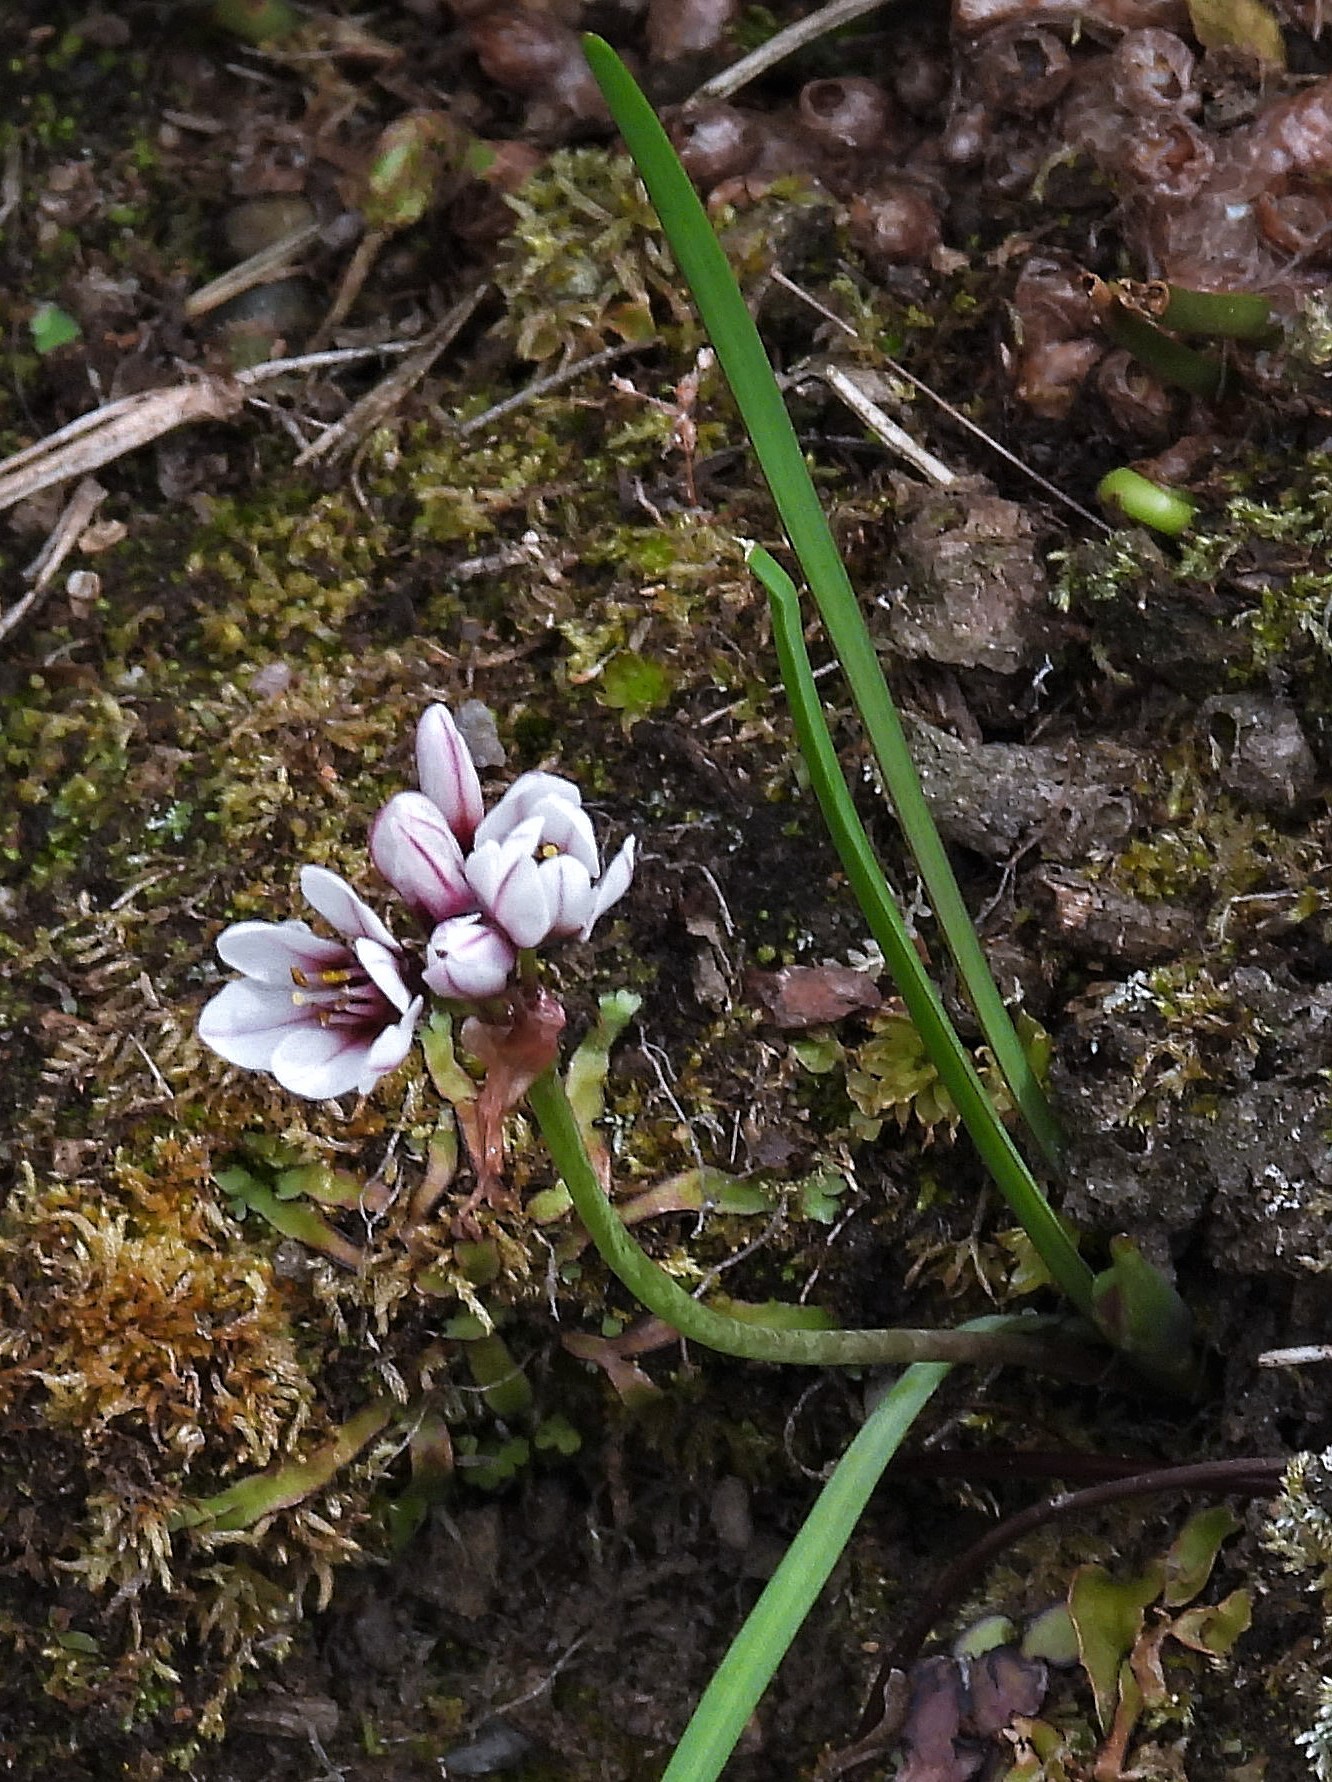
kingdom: Plantae
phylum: Tracheophyta
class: Liliopsida
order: Asparagales
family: Amaryllidaceae
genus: Nothoscordum
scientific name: Nothoscordum andicola
